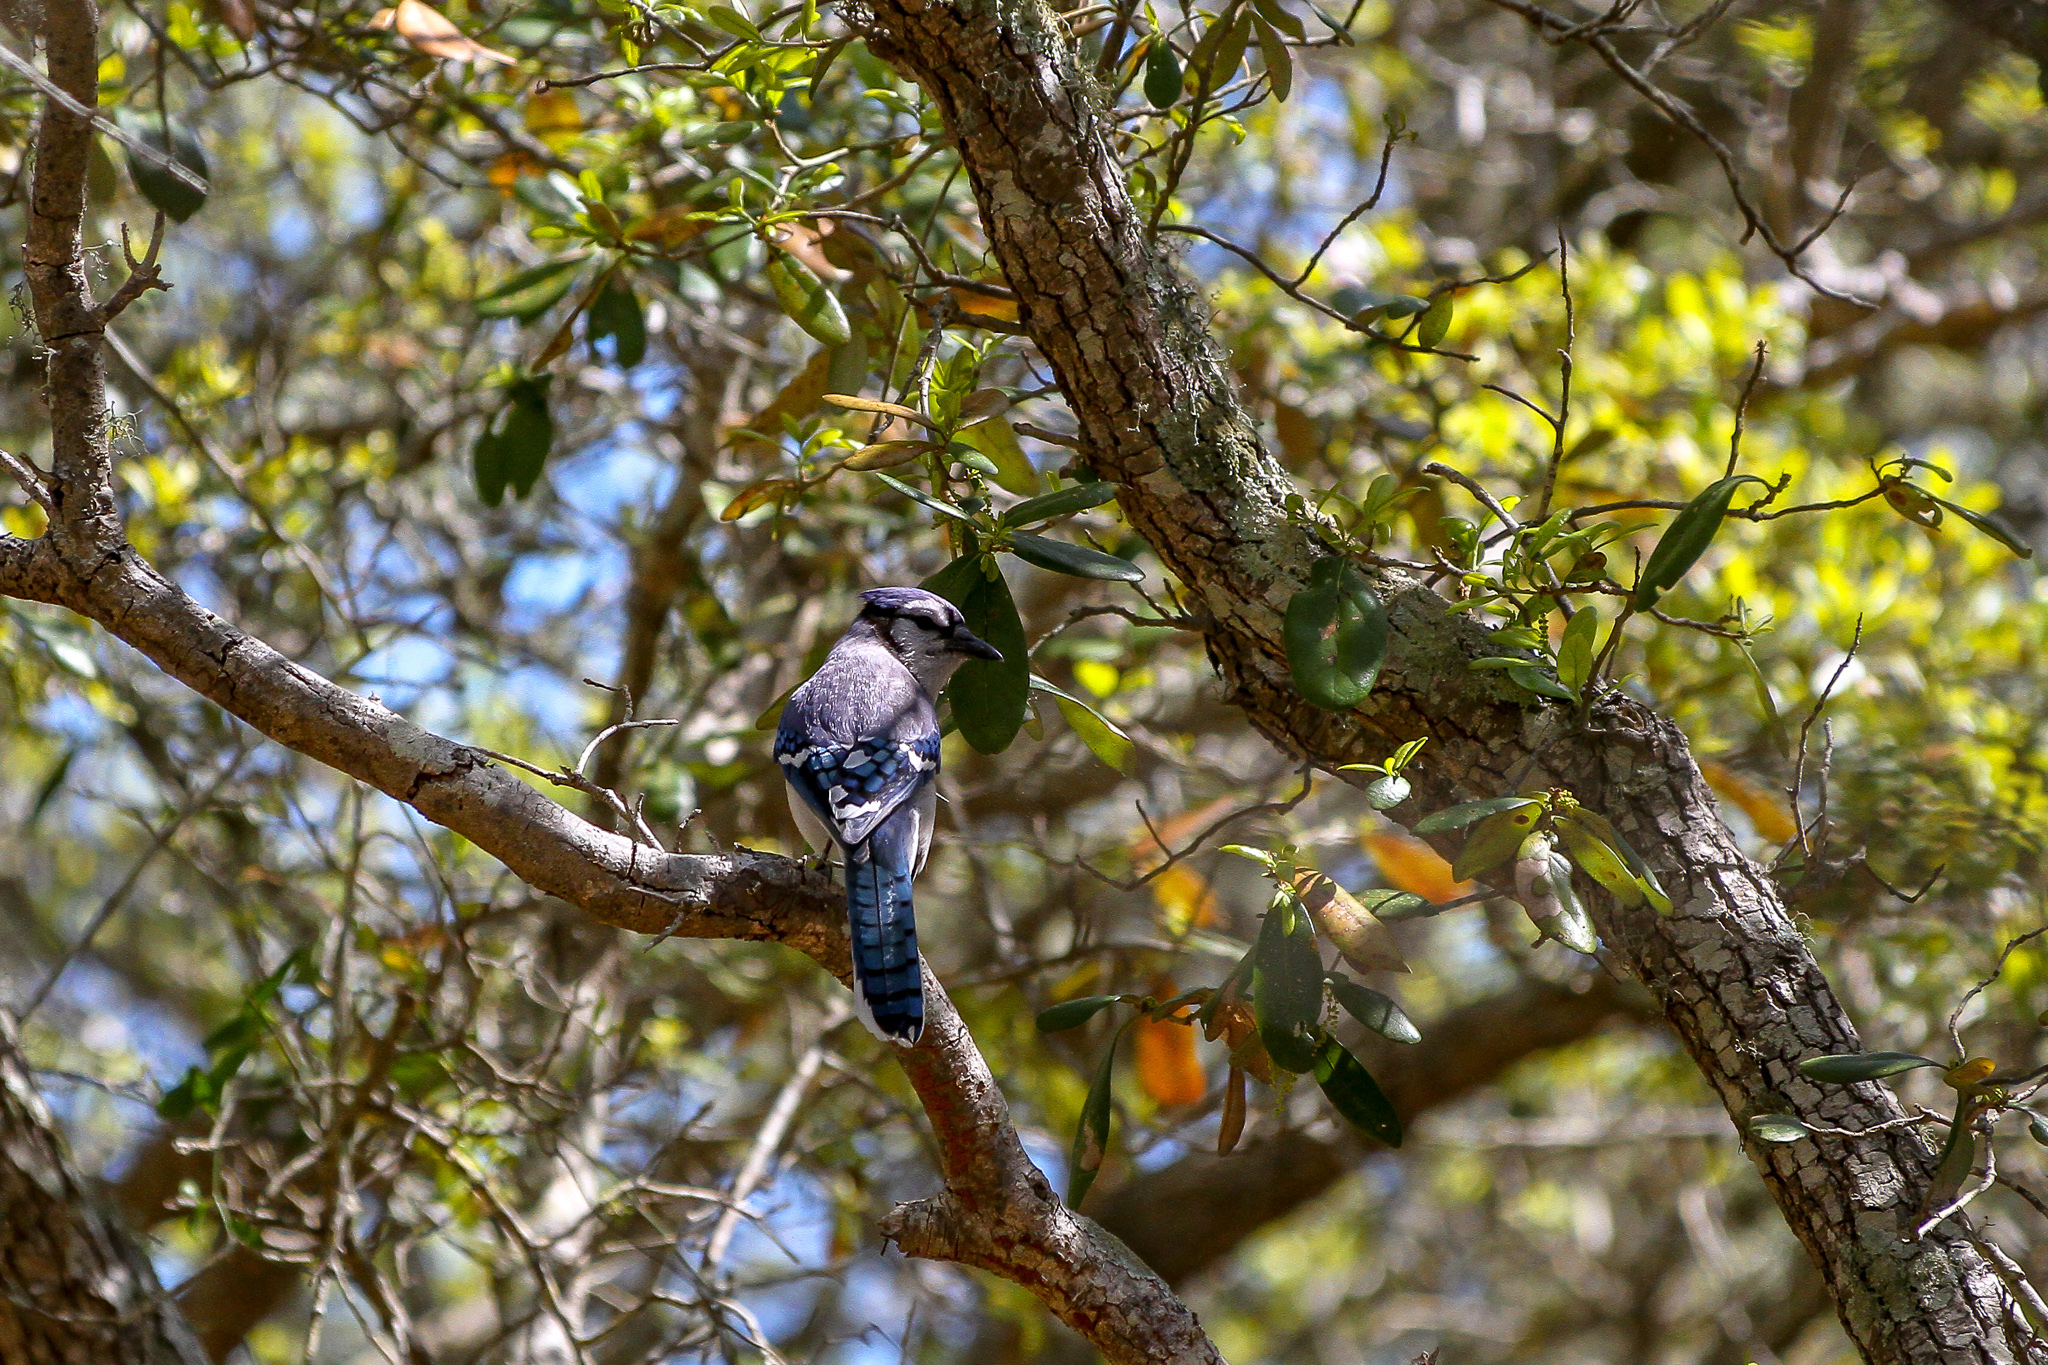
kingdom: Animalia
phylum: Chordata
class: Aves
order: Passeriformes
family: Corvidae
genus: Cyanocitta
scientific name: Cyanocitta cristata
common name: Blue jay
